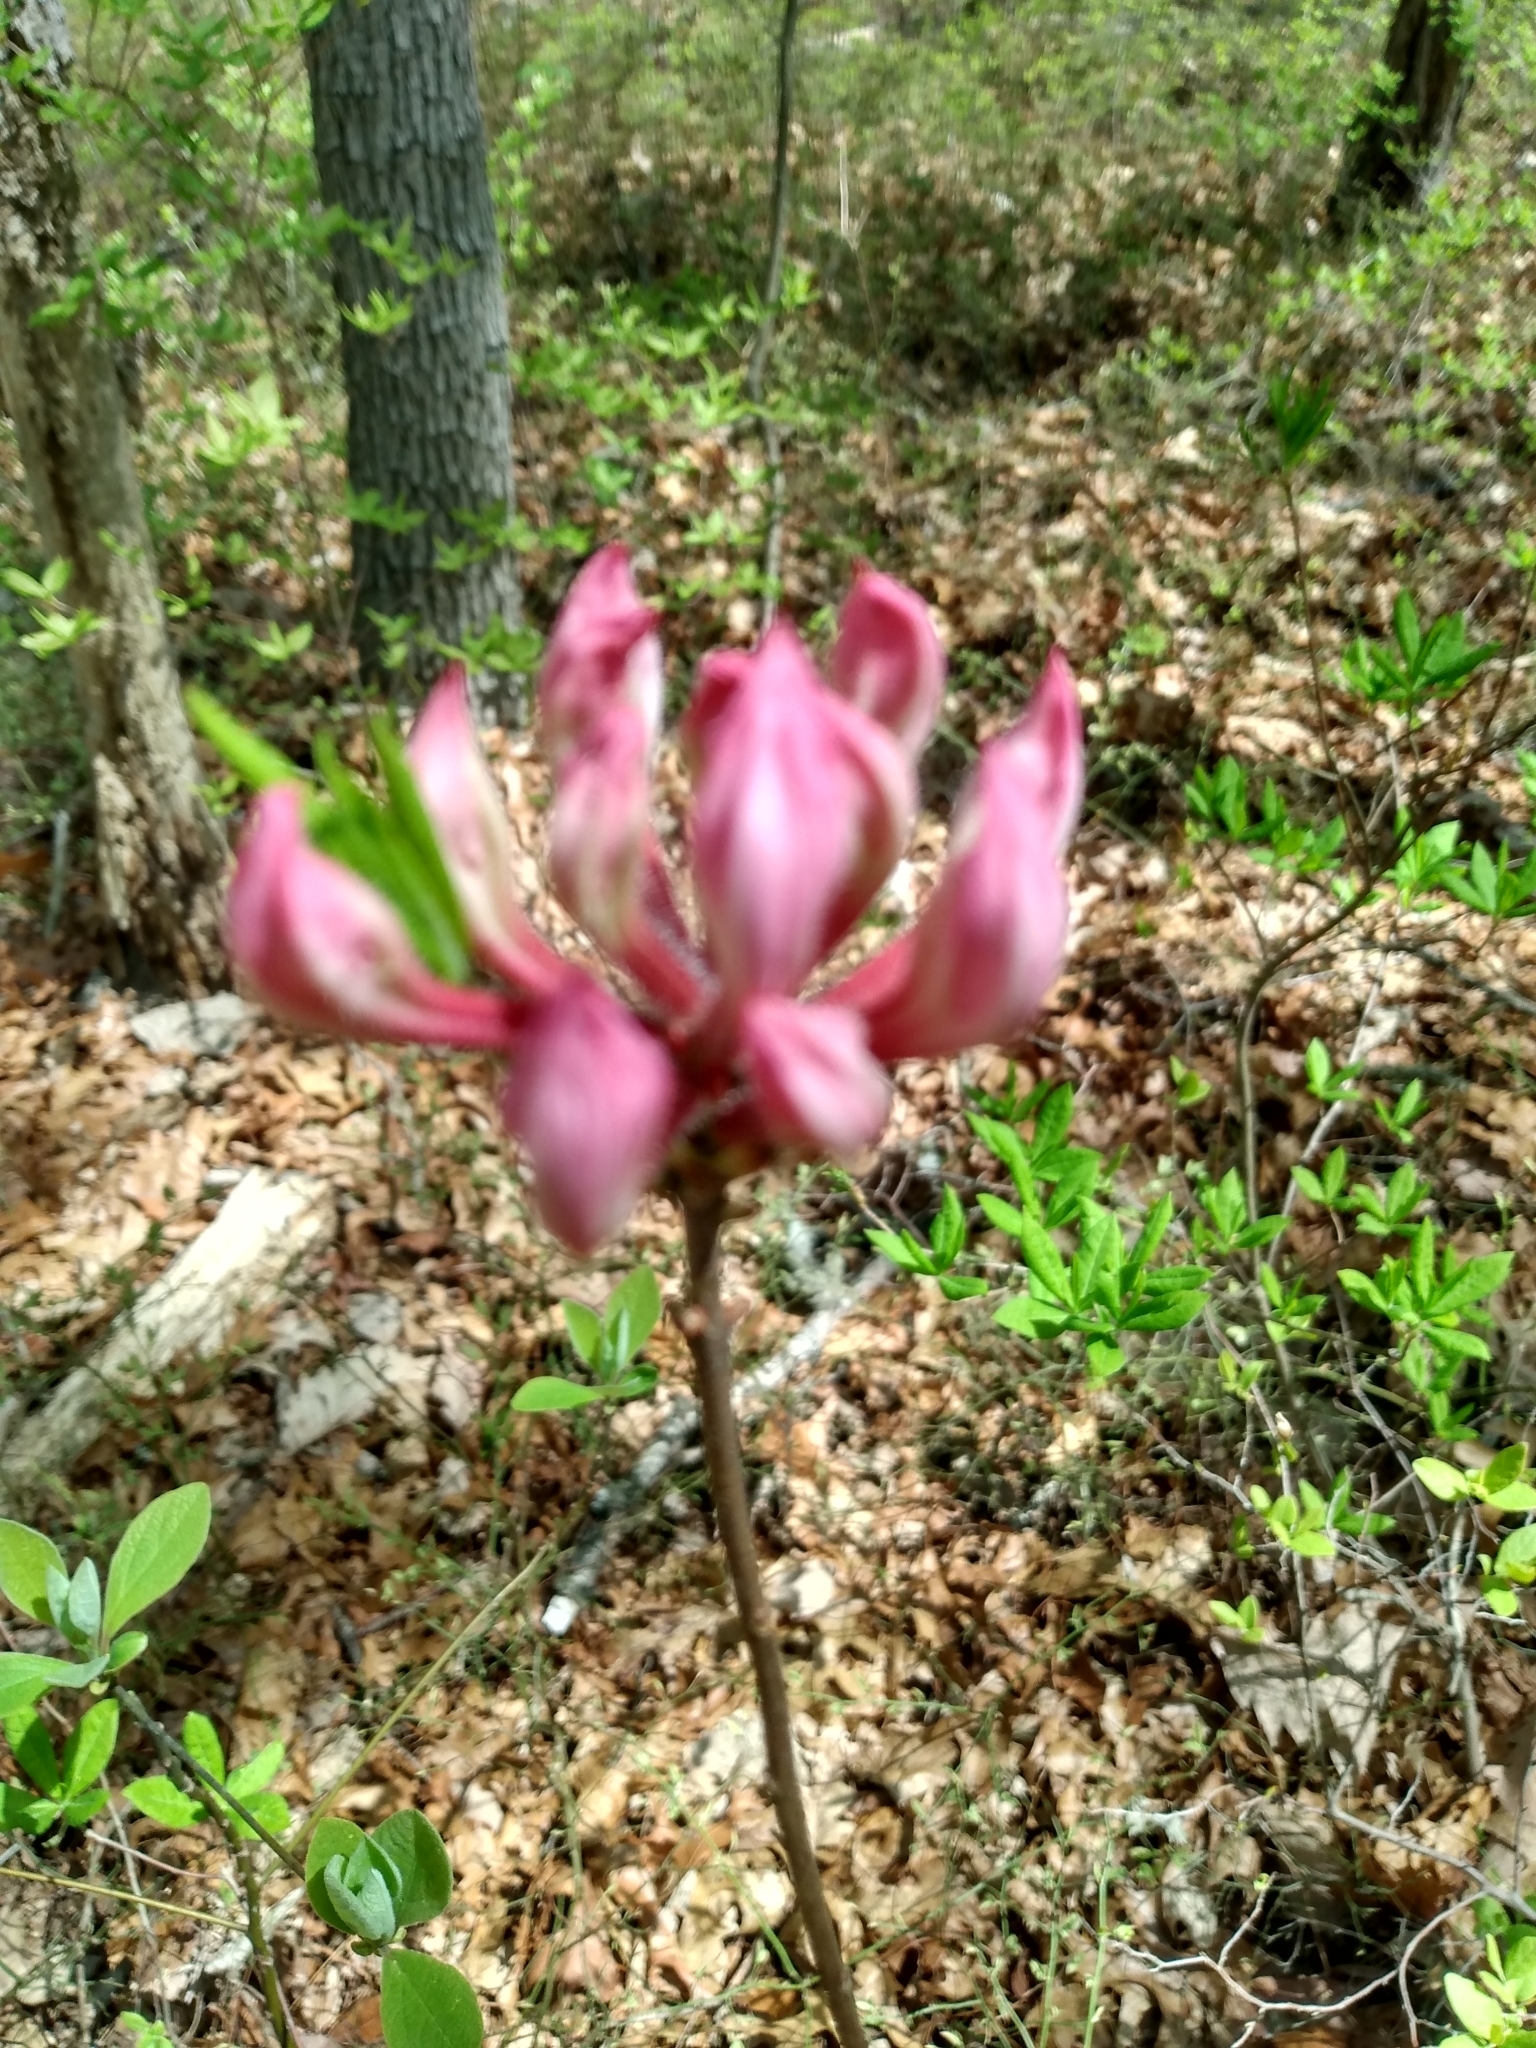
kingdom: Plantae
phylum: Tracheophyta
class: Magnoliopsida
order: Ericales
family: Ericaceae
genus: Rhododendron
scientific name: Rhododendron periclymenoides
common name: Election-pink
